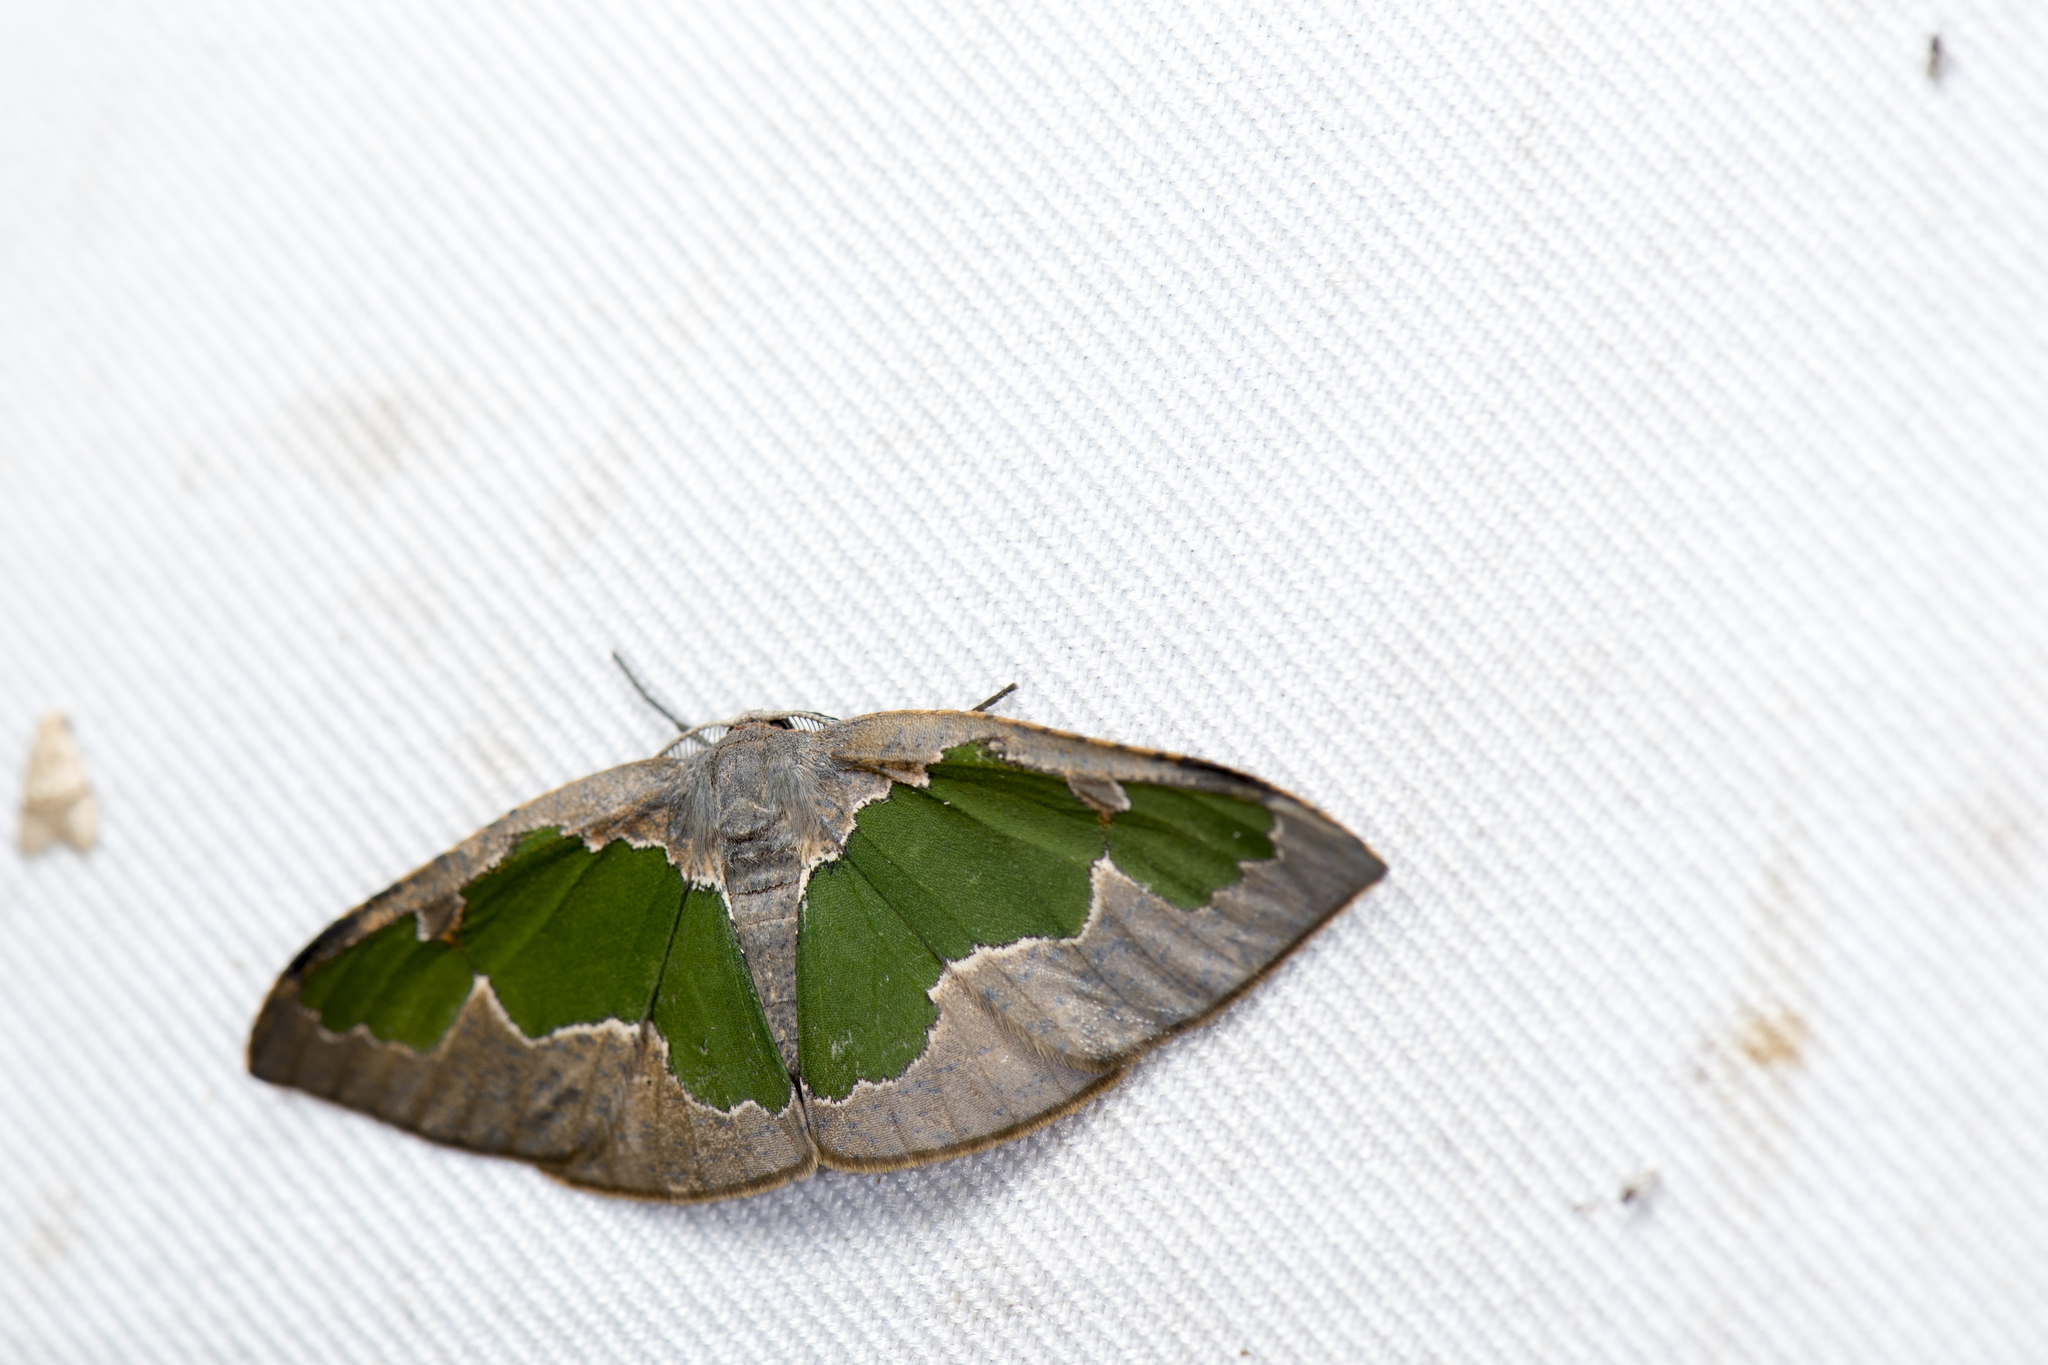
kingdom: Animalia
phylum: Arthropoda
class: Insecta
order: Lepidoptera
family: Geometridae
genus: Celenna
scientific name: Celenna festivaria
